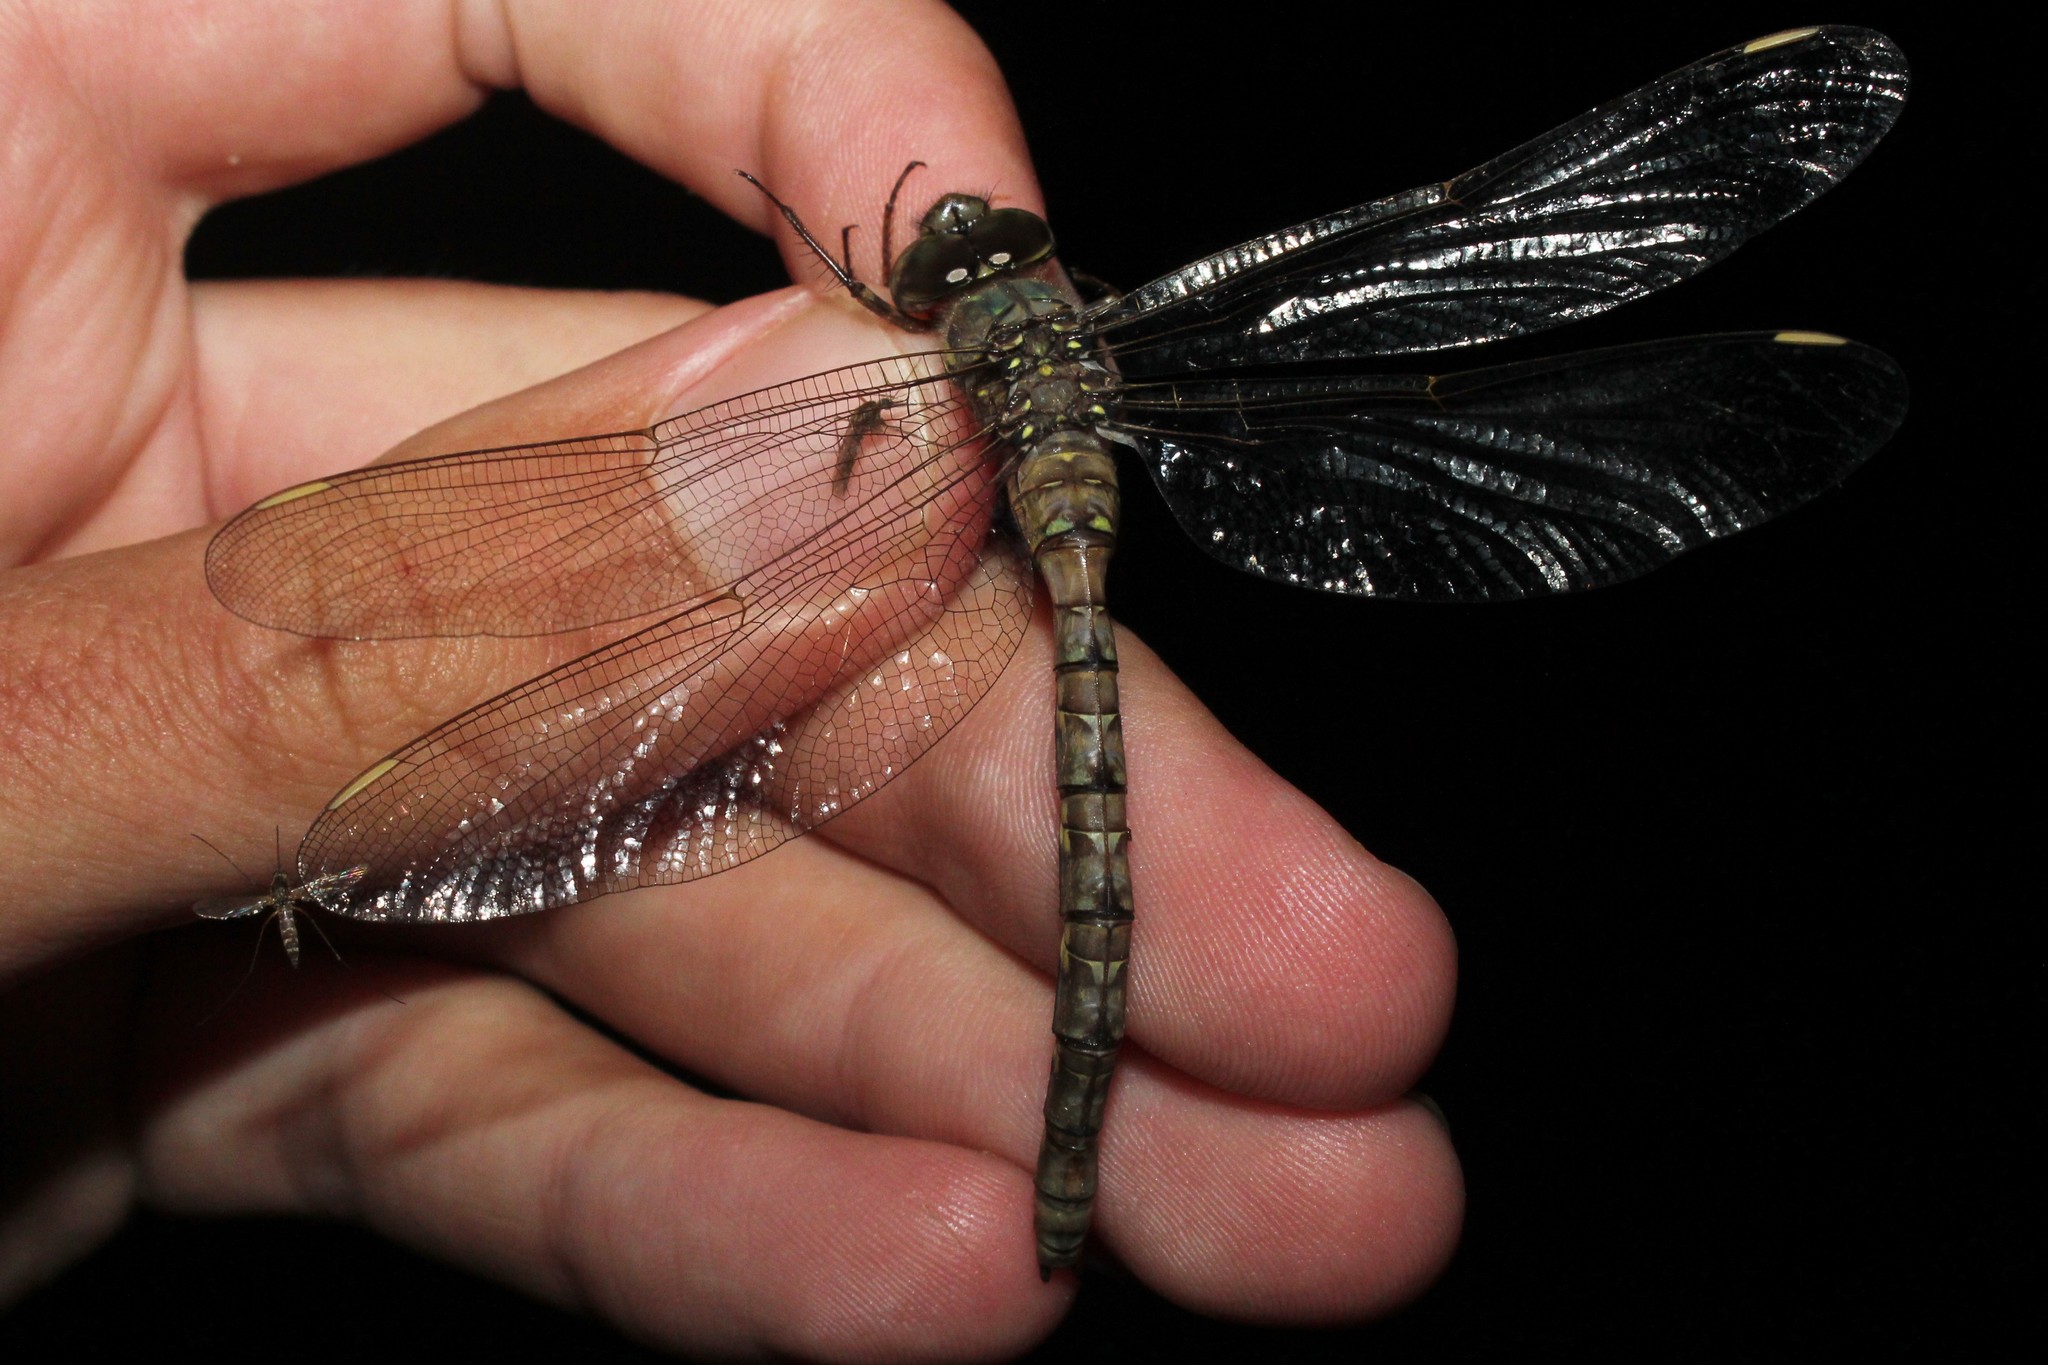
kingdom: Animalia
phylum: Arthropoda
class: Insecta
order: Odonata
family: Aeshnidae
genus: Boyeria
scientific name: Boyeria grafiana
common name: Ocellated darner
